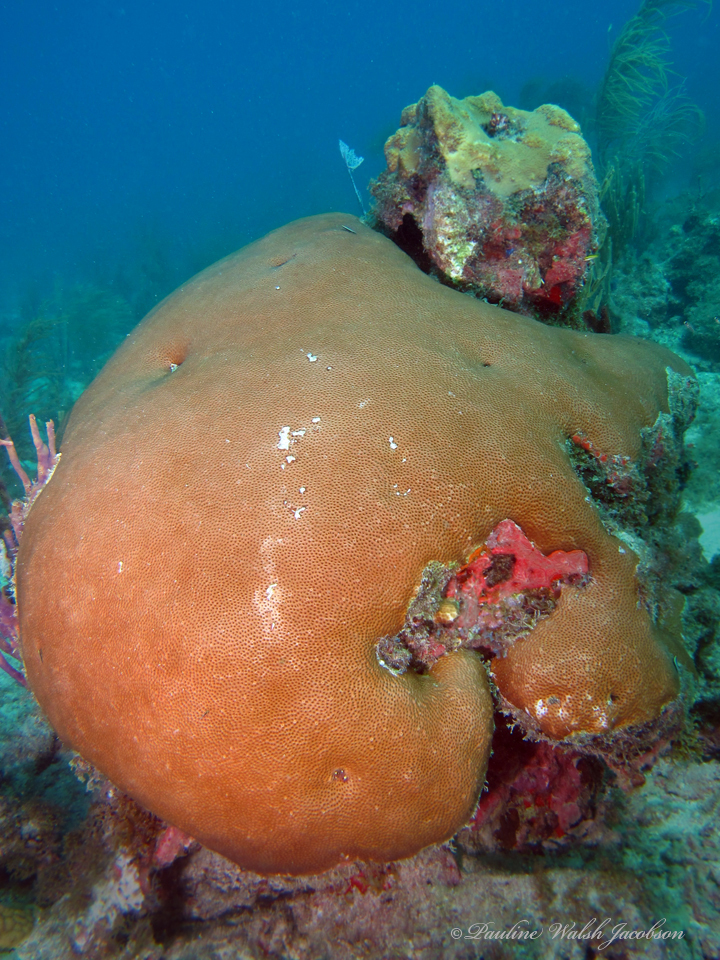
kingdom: Animalia
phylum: Cnidaria
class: Anthozoa
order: Scleractinia
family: Rhizangiidae
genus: Siderastrea
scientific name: Siderastrea siderea
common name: Massive starlet coral
